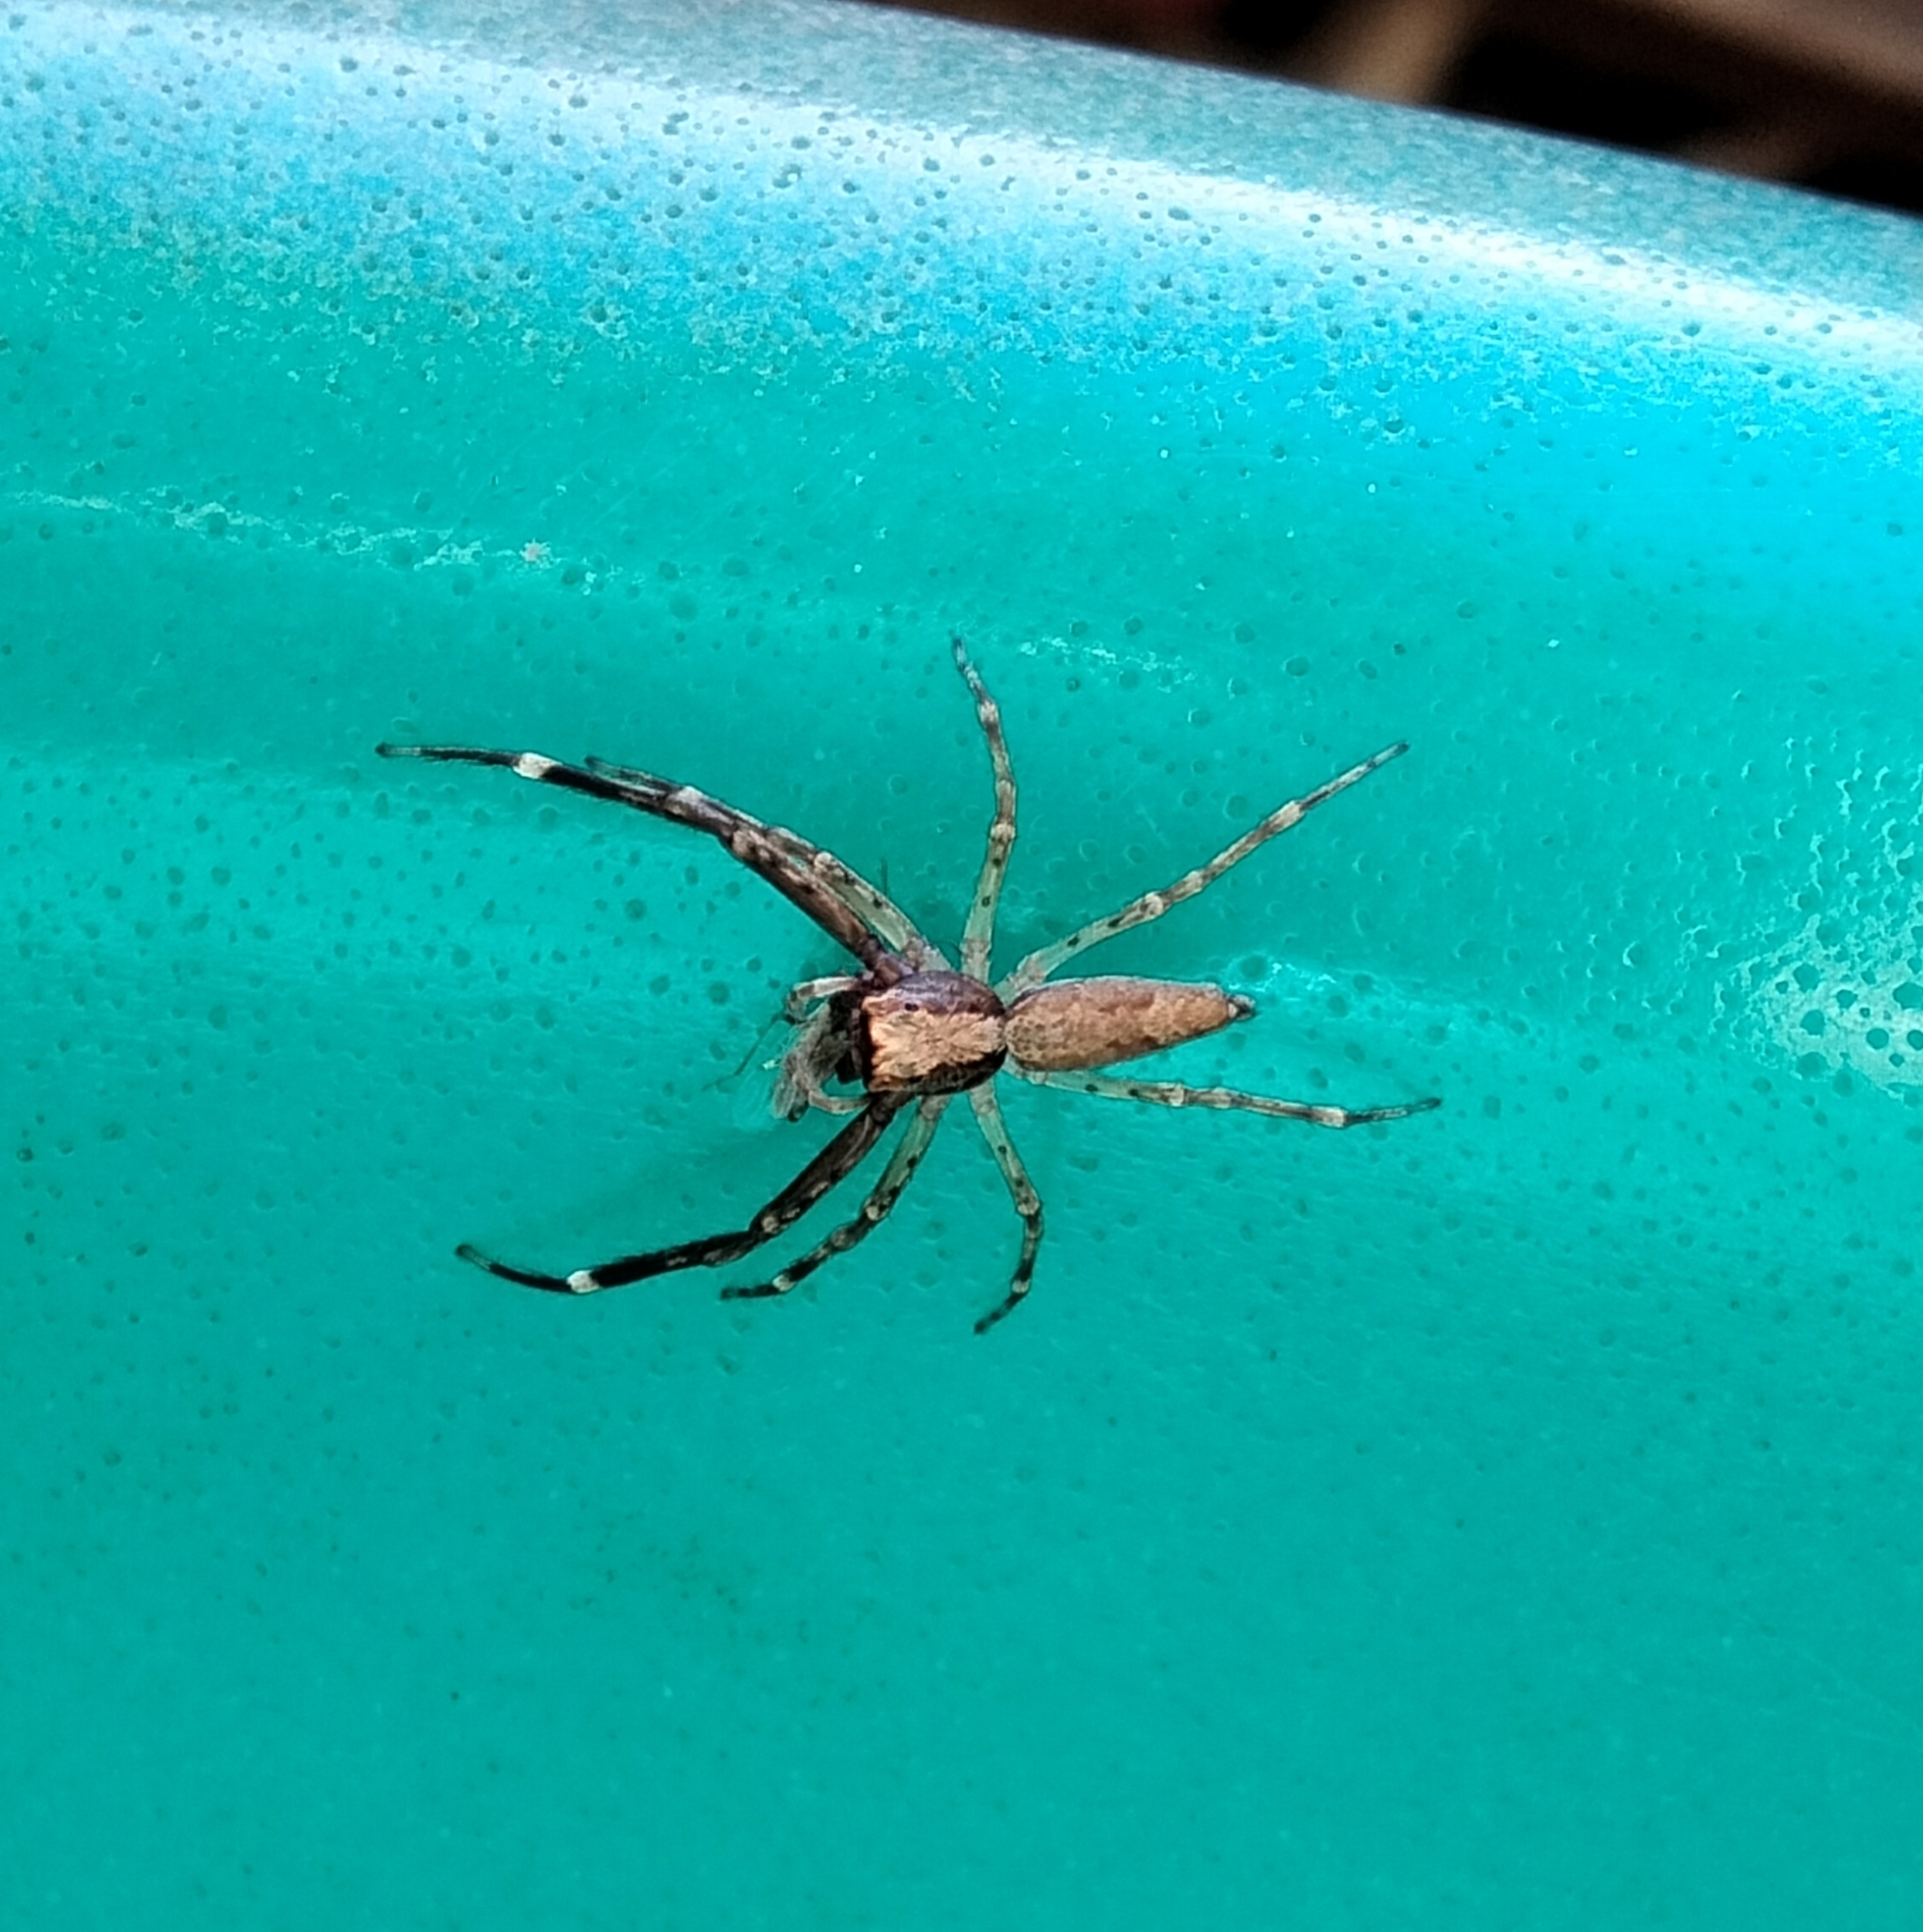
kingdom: Animalia
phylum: Arthropoda
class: Arachnida
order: Araneae
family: Salticidae
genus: Helpis
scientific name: Helpis minitabunda
